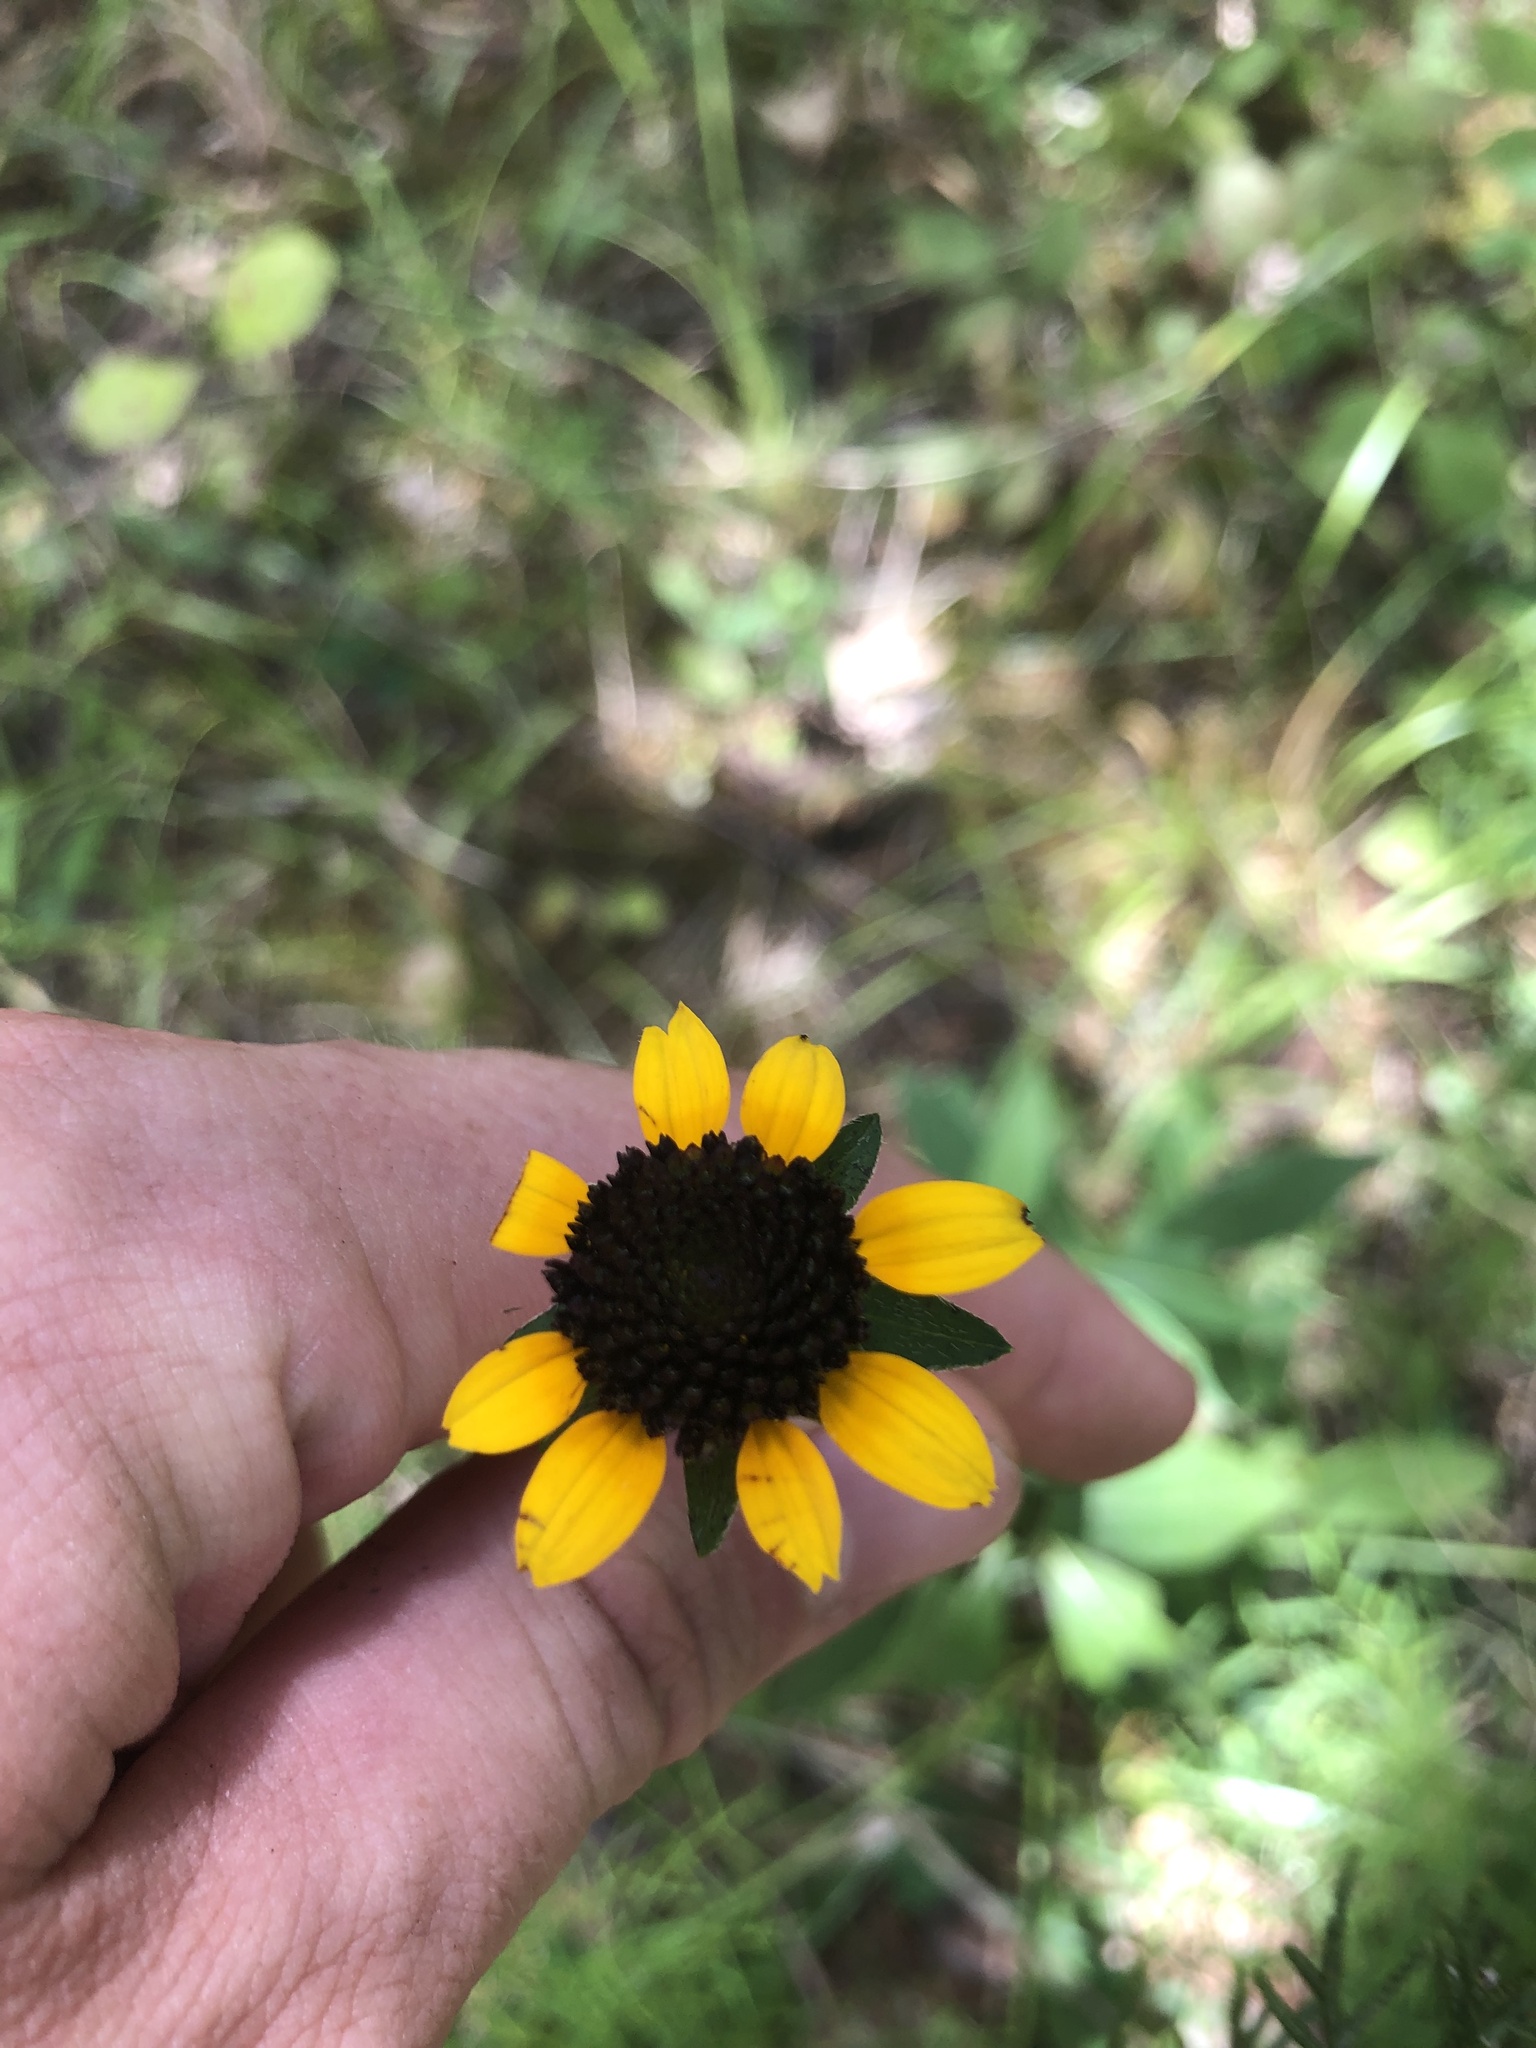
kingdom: Plantae
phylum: Tracheophyta
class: Magnoliopsida
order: Asterales
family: Asteraceae
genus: Rudbeckia
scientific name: Rudbeckia terranigrae
